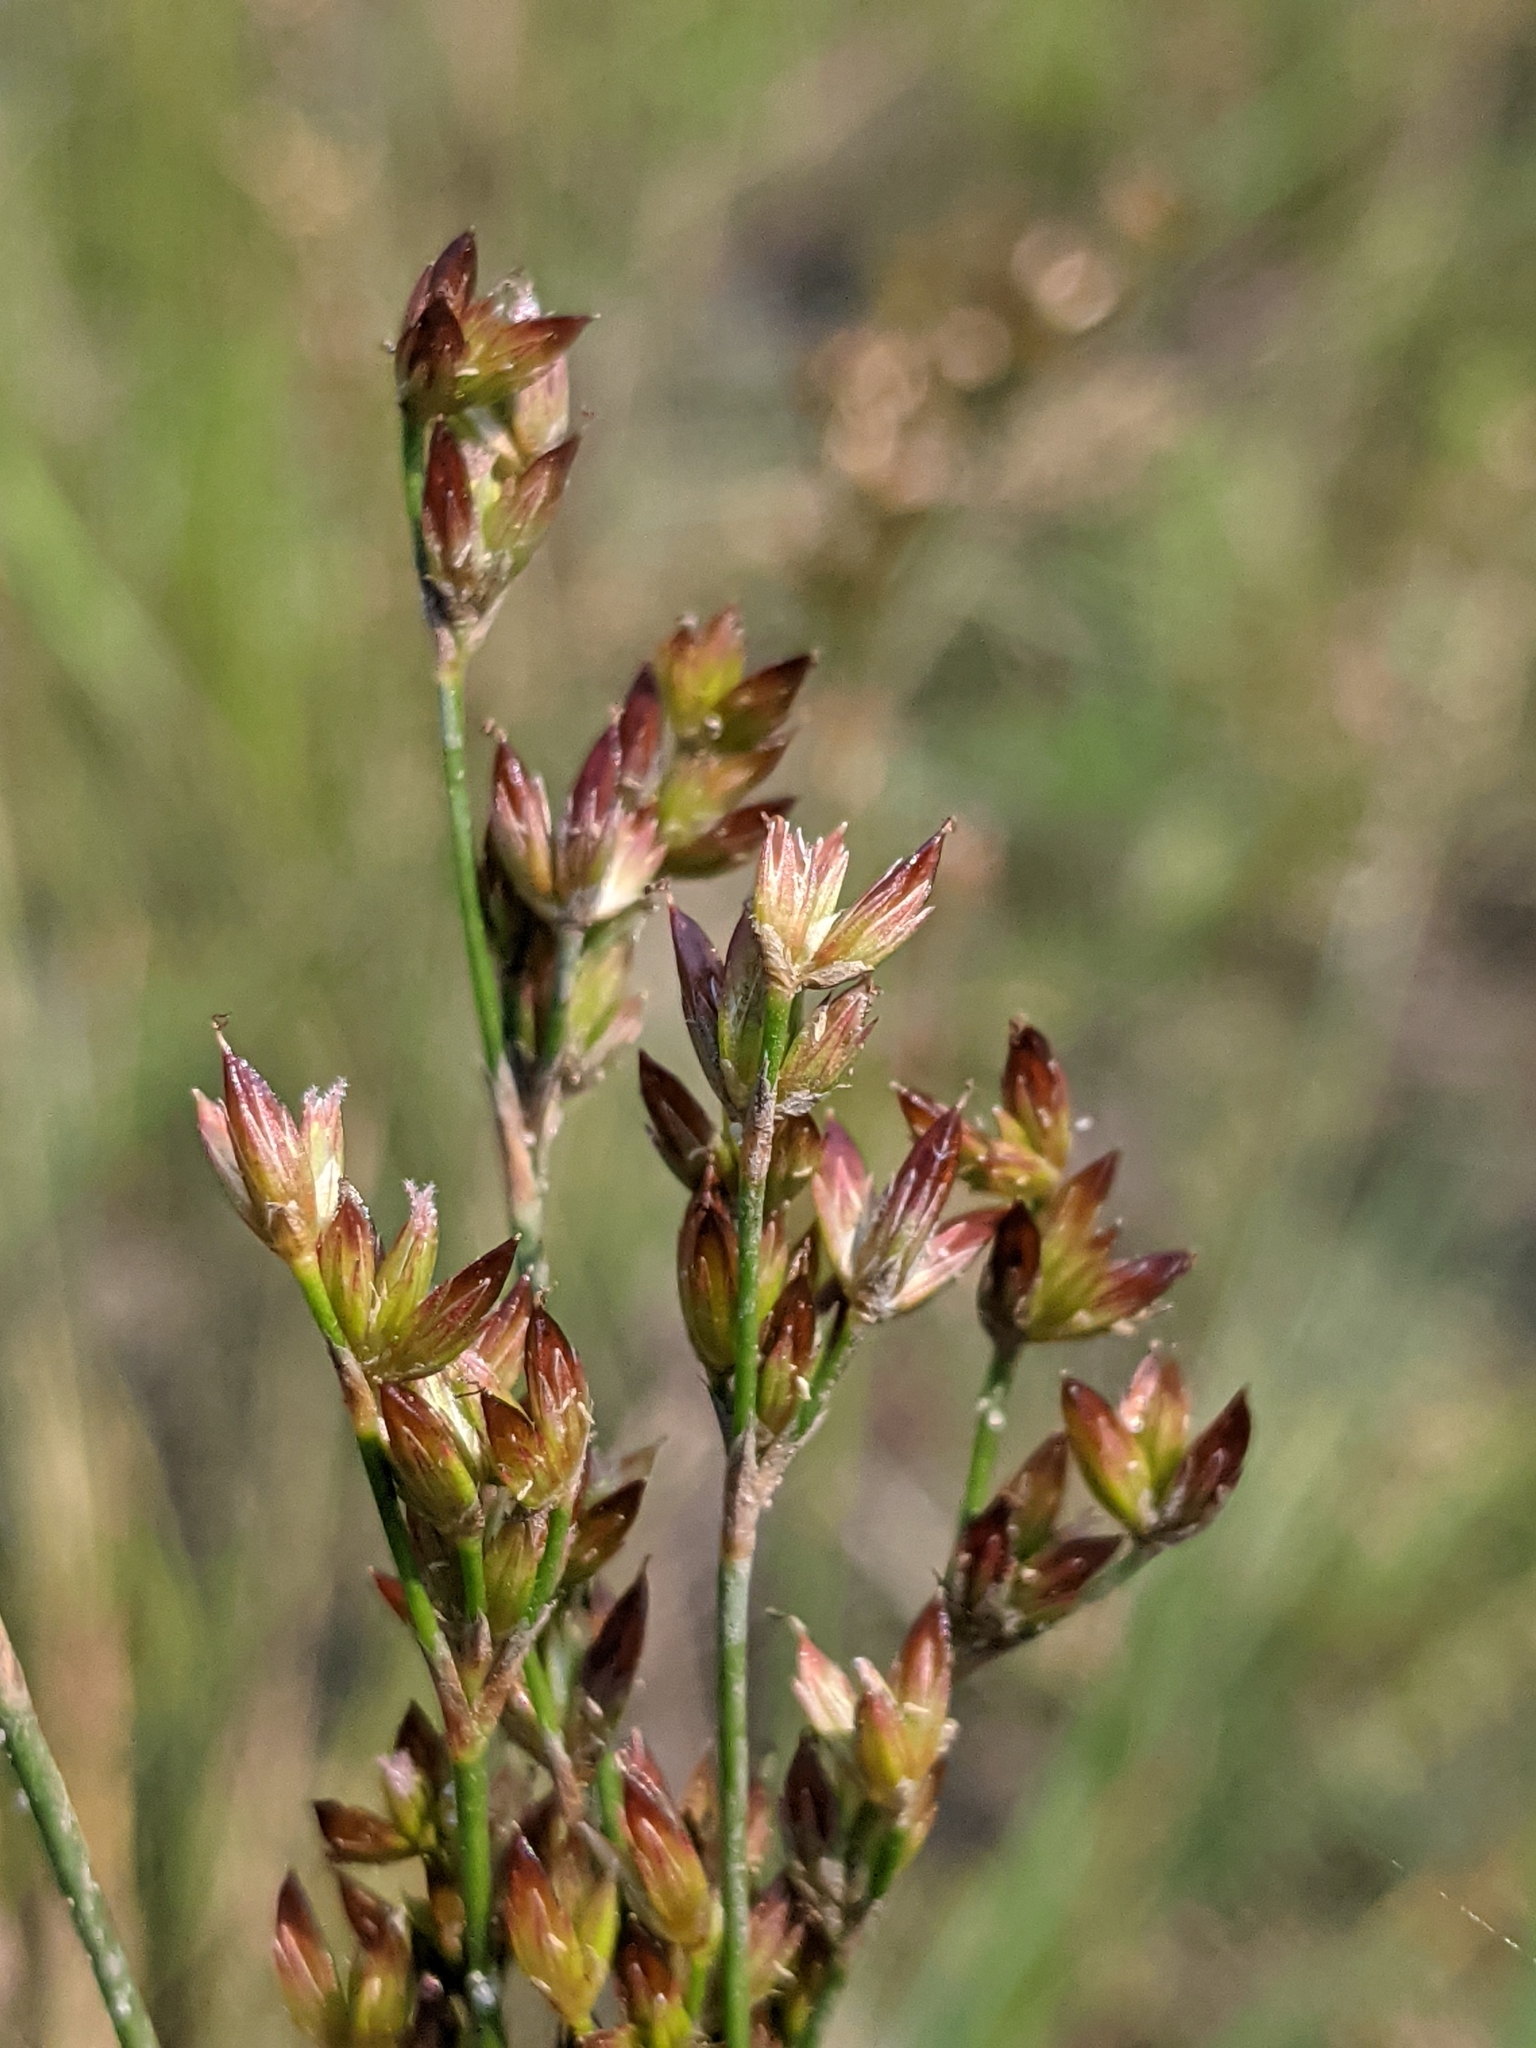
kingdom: Plantae
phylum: Tracheophyta
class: Liliopsida
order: Poales
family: Juncaceae
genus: Juncus
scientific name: Juncus tweedyi
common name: Narrow-panicled rush
